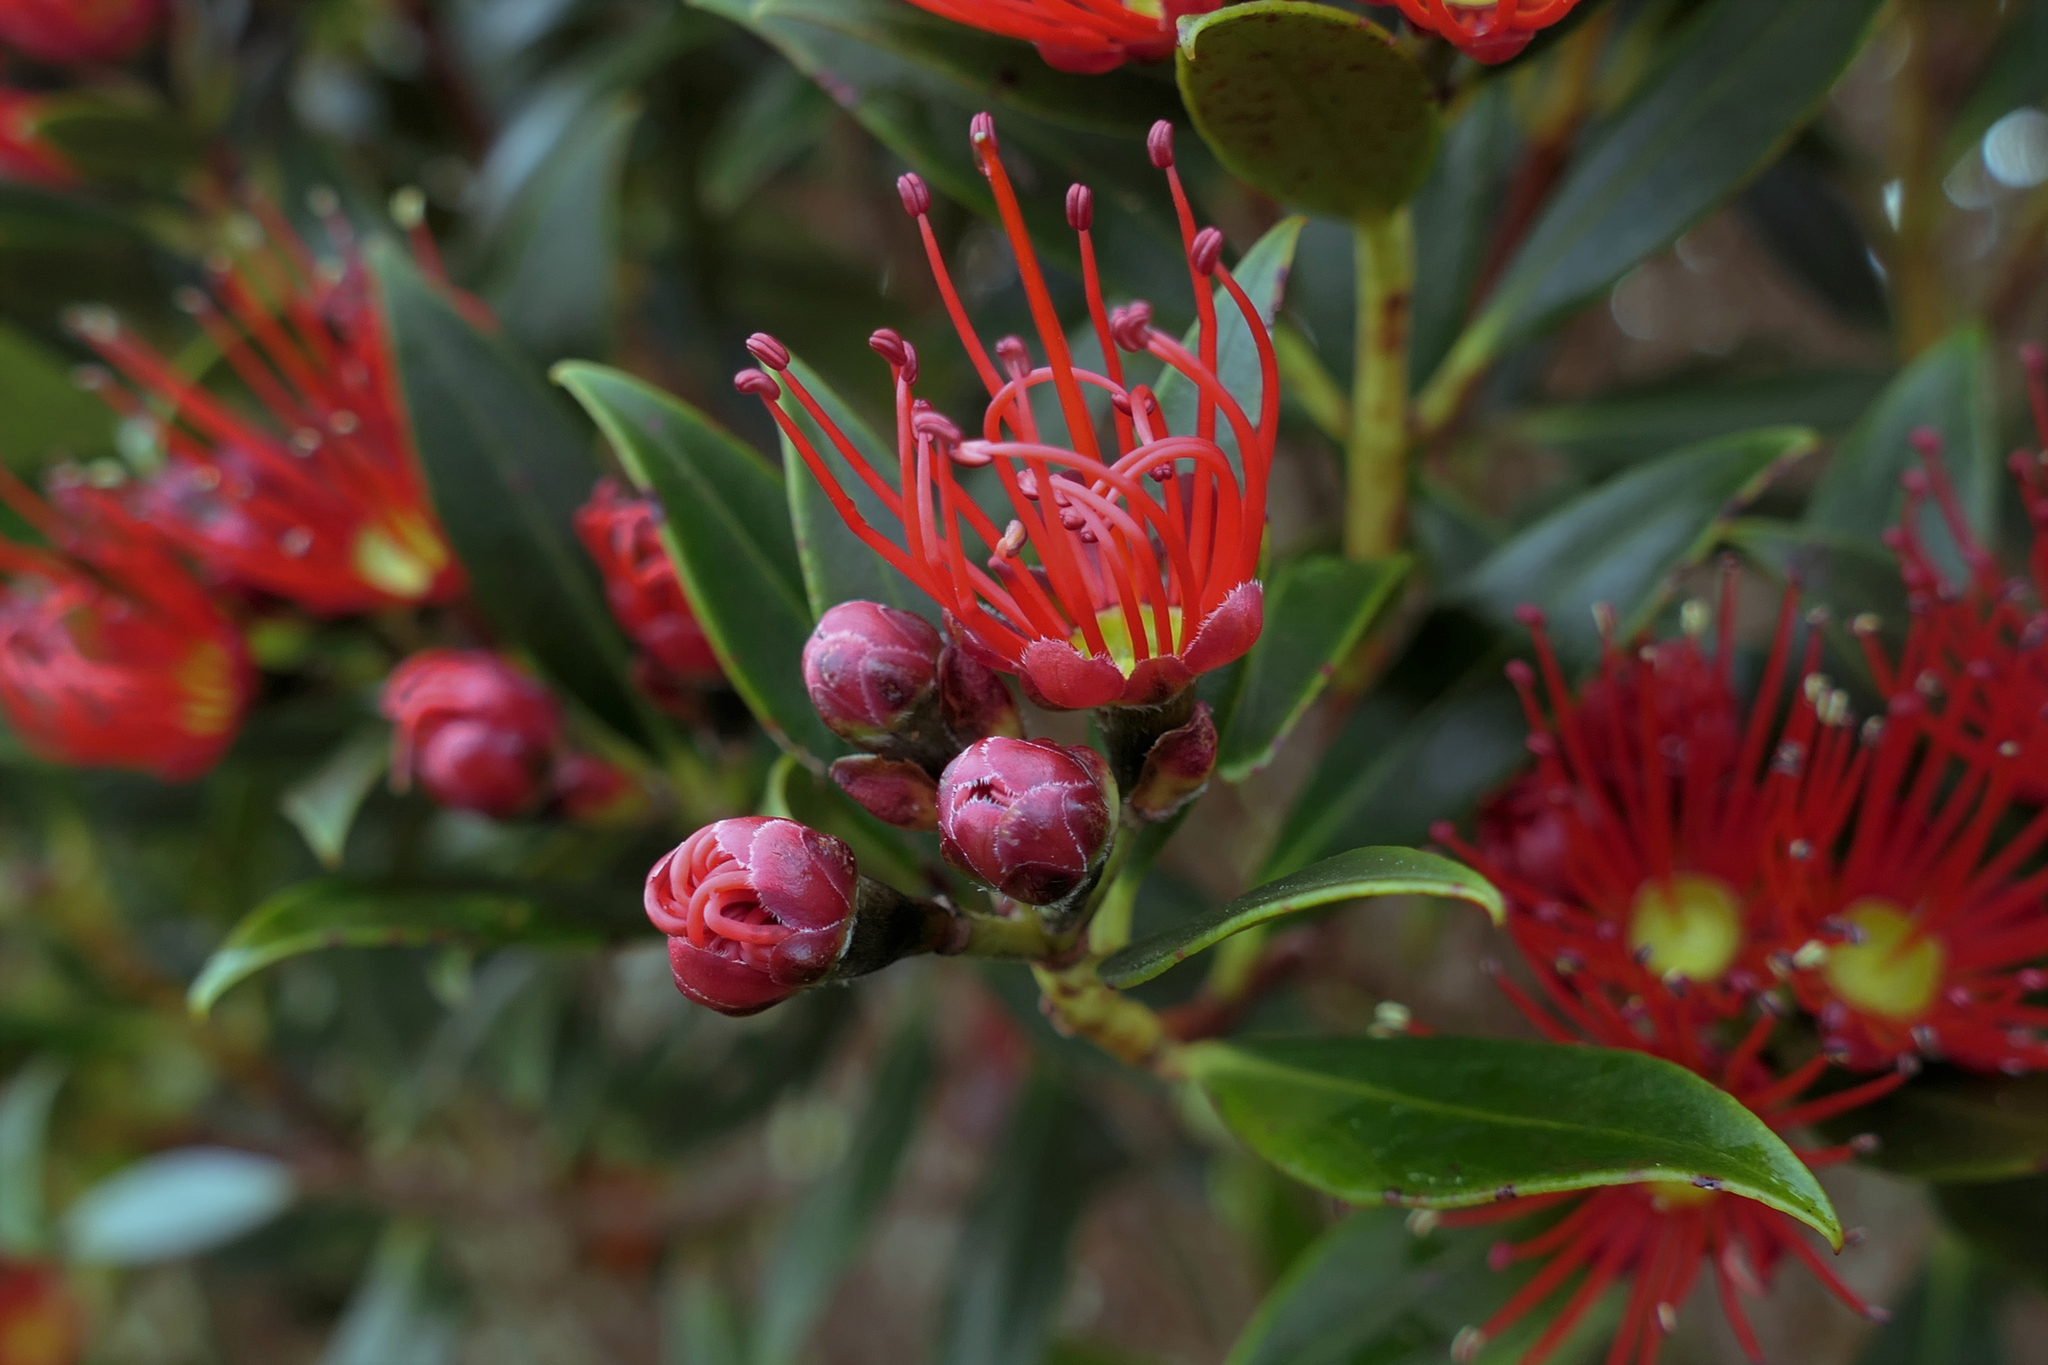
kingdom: Plantae
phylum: Tracheophyta
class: Magnoliopsida
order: Myrtales
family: Myrtaceae
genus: Metrosideros
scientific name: Metrosideros umbellata
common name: Southern rata
